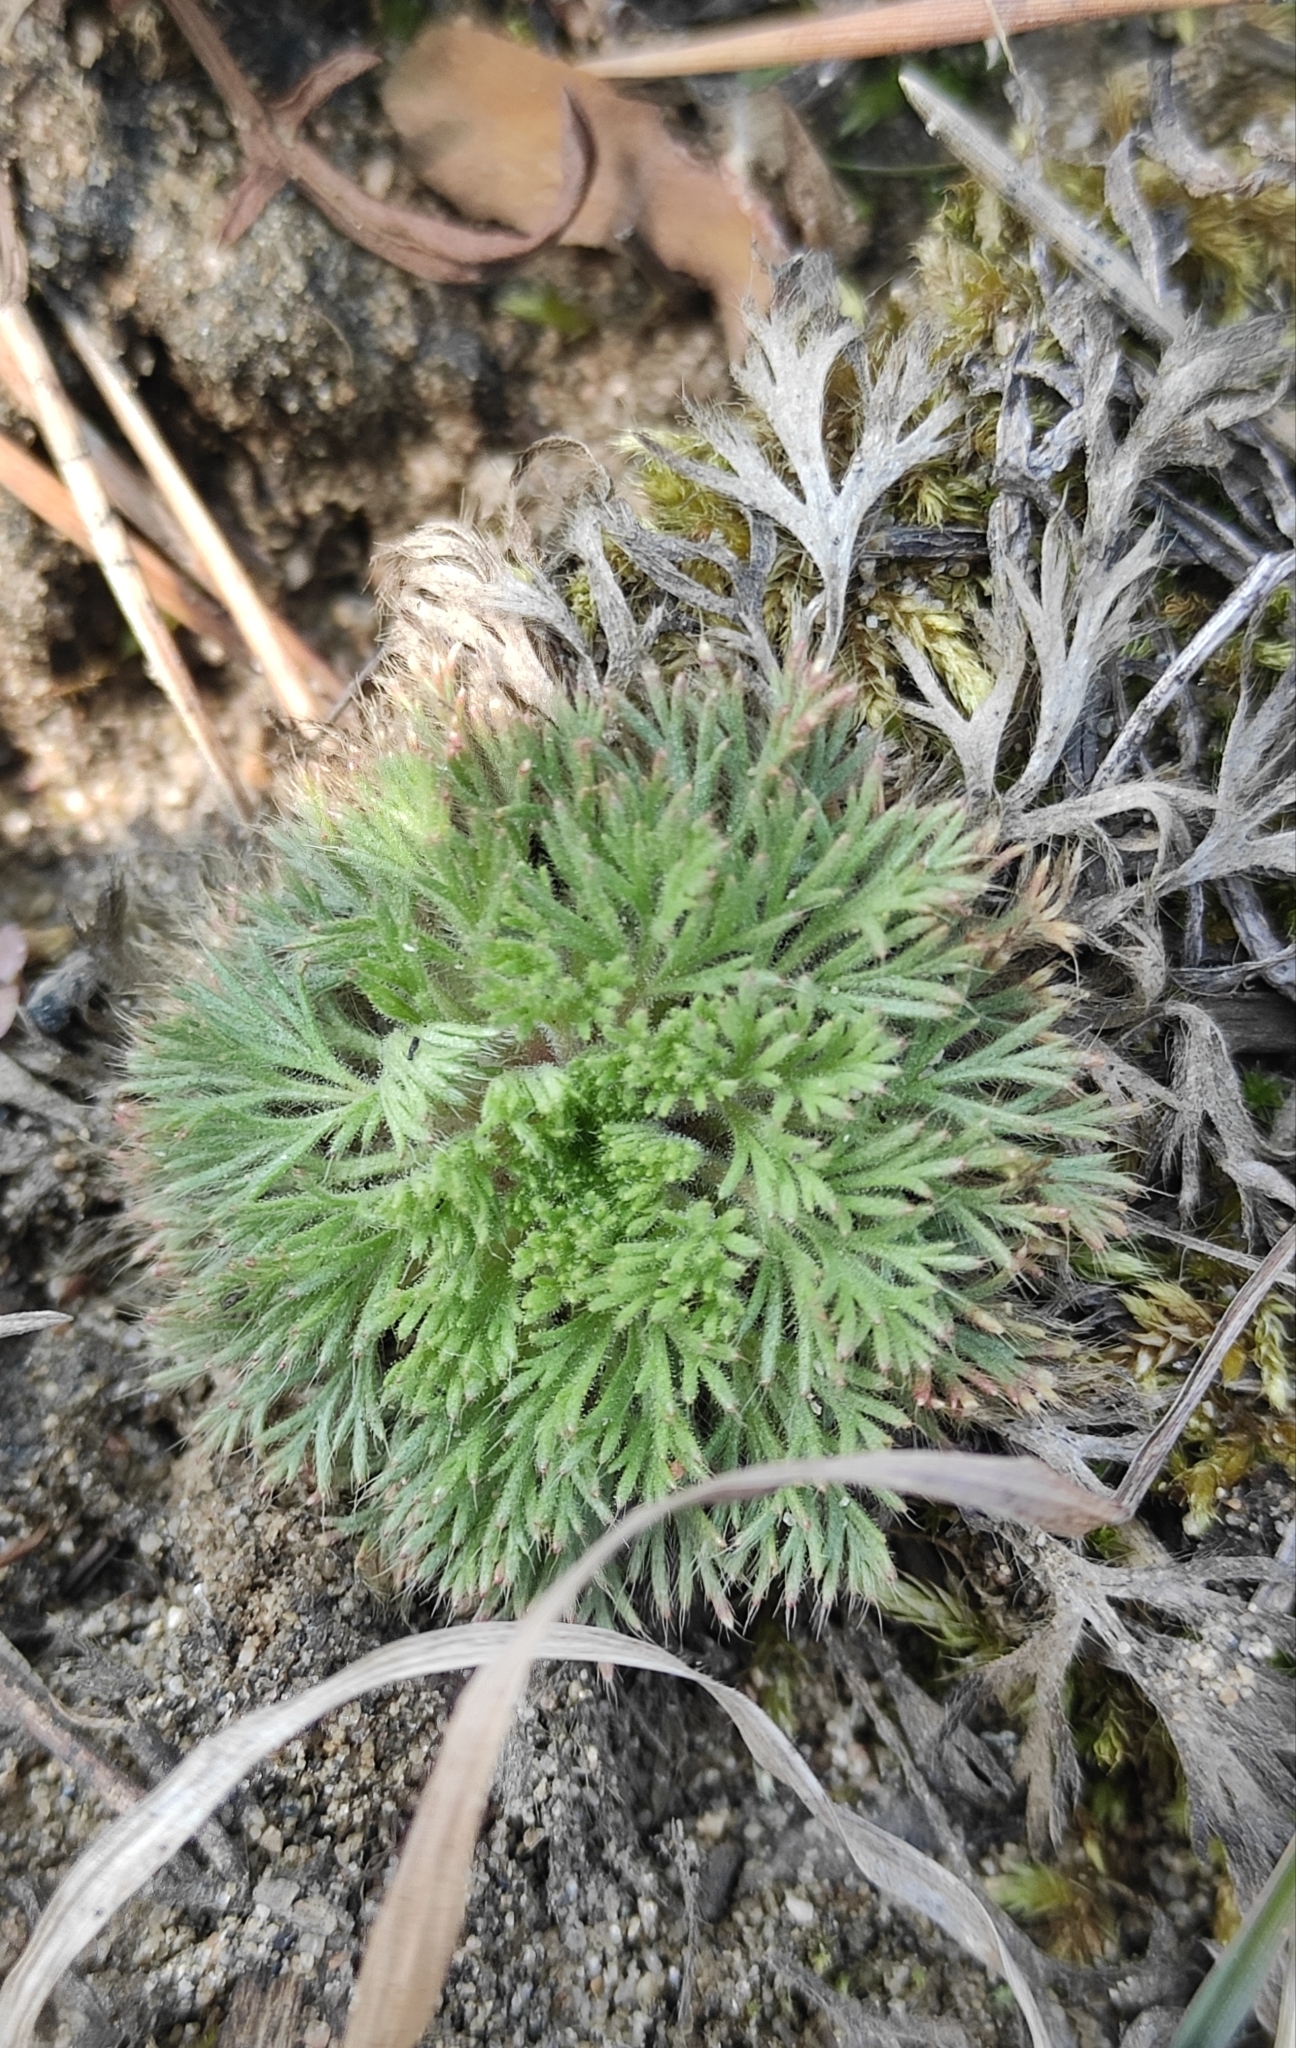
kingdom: Plantae
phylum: Tracheophyta
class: Magnoliopsida
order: Rosales
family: Rosaceae
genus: Chamaerhodos
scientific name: Chamaerhodos erecta
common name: American chamaerhodos
